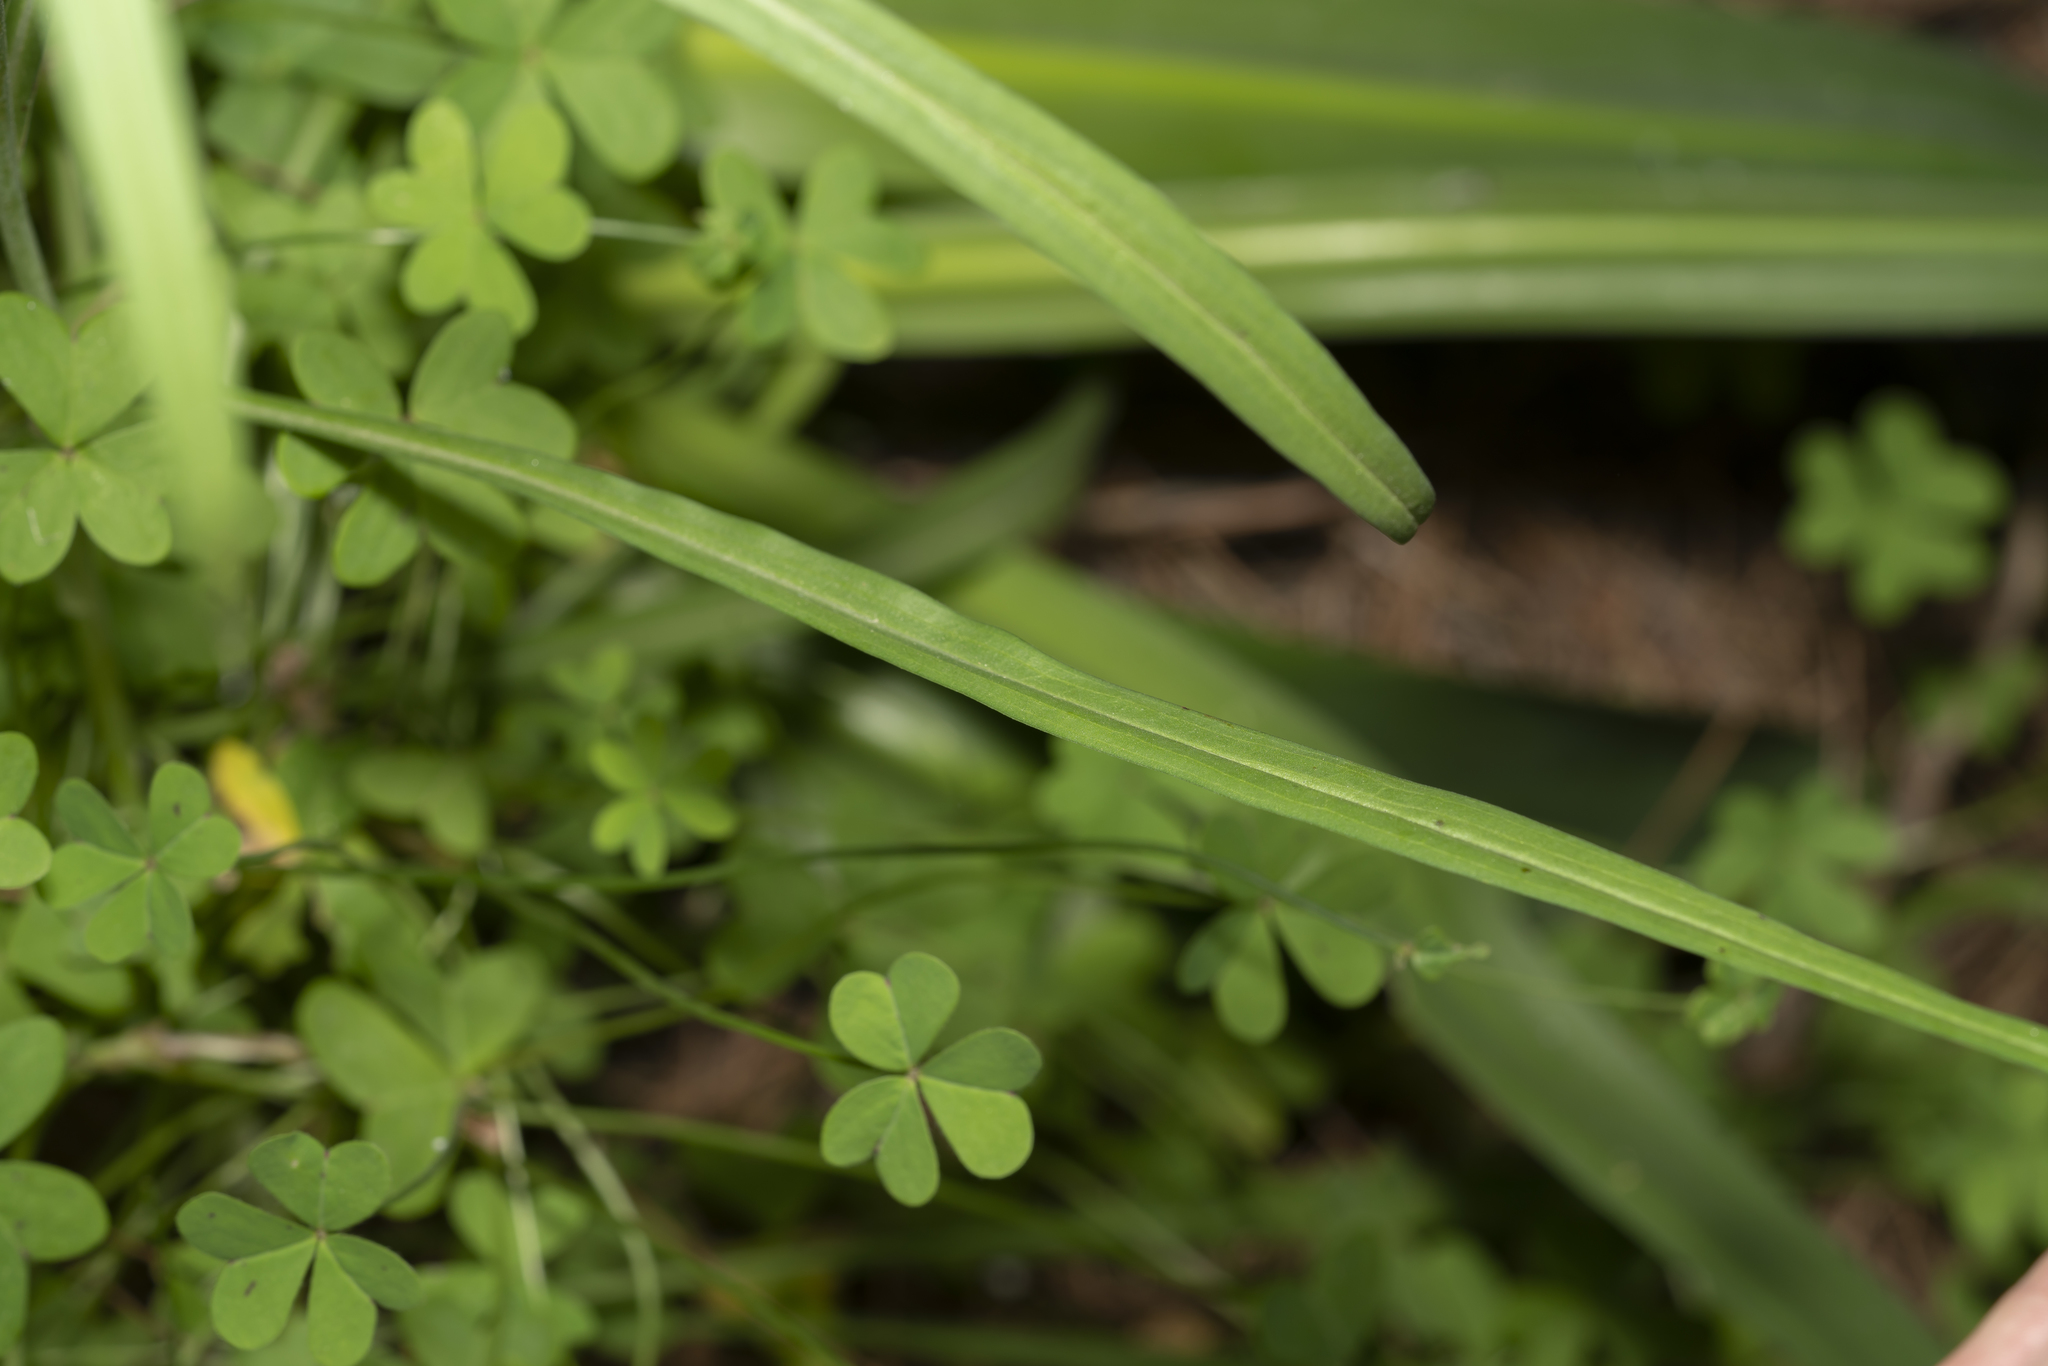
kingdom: Plantae
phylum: Tracheophyta
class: Magnoliopsida
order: Asterales
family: Asteraceae
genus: Candollea
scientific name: Candollea elata
